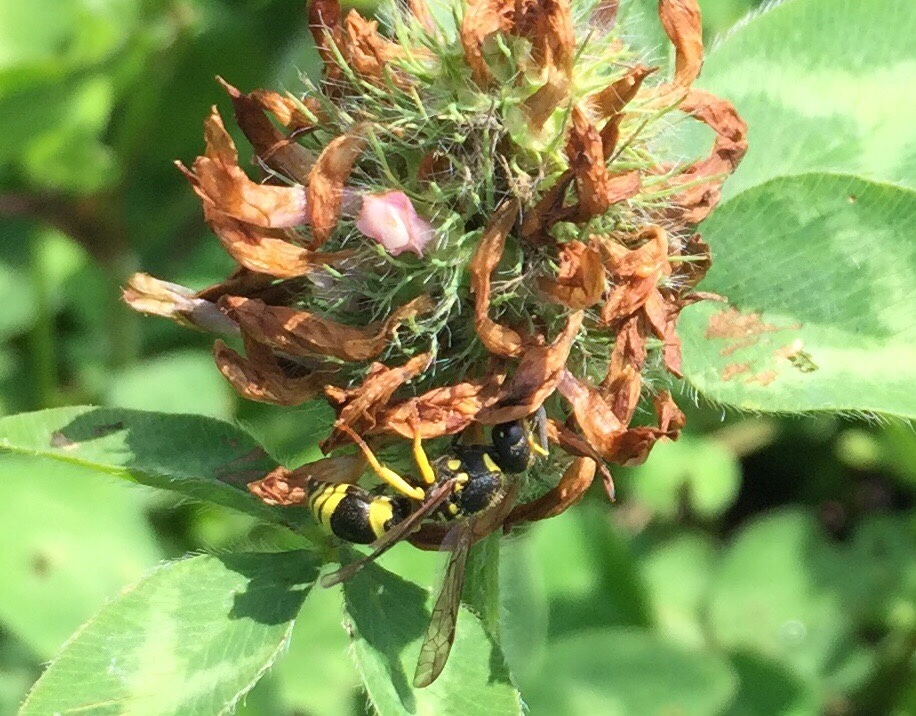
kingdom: Animalia
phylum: Arthropoda
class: Insecta
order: Hymenoptera
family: Vespidae
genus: Ancistrocerus
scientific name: Ancistrocerus gazella
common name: European tube wasp
